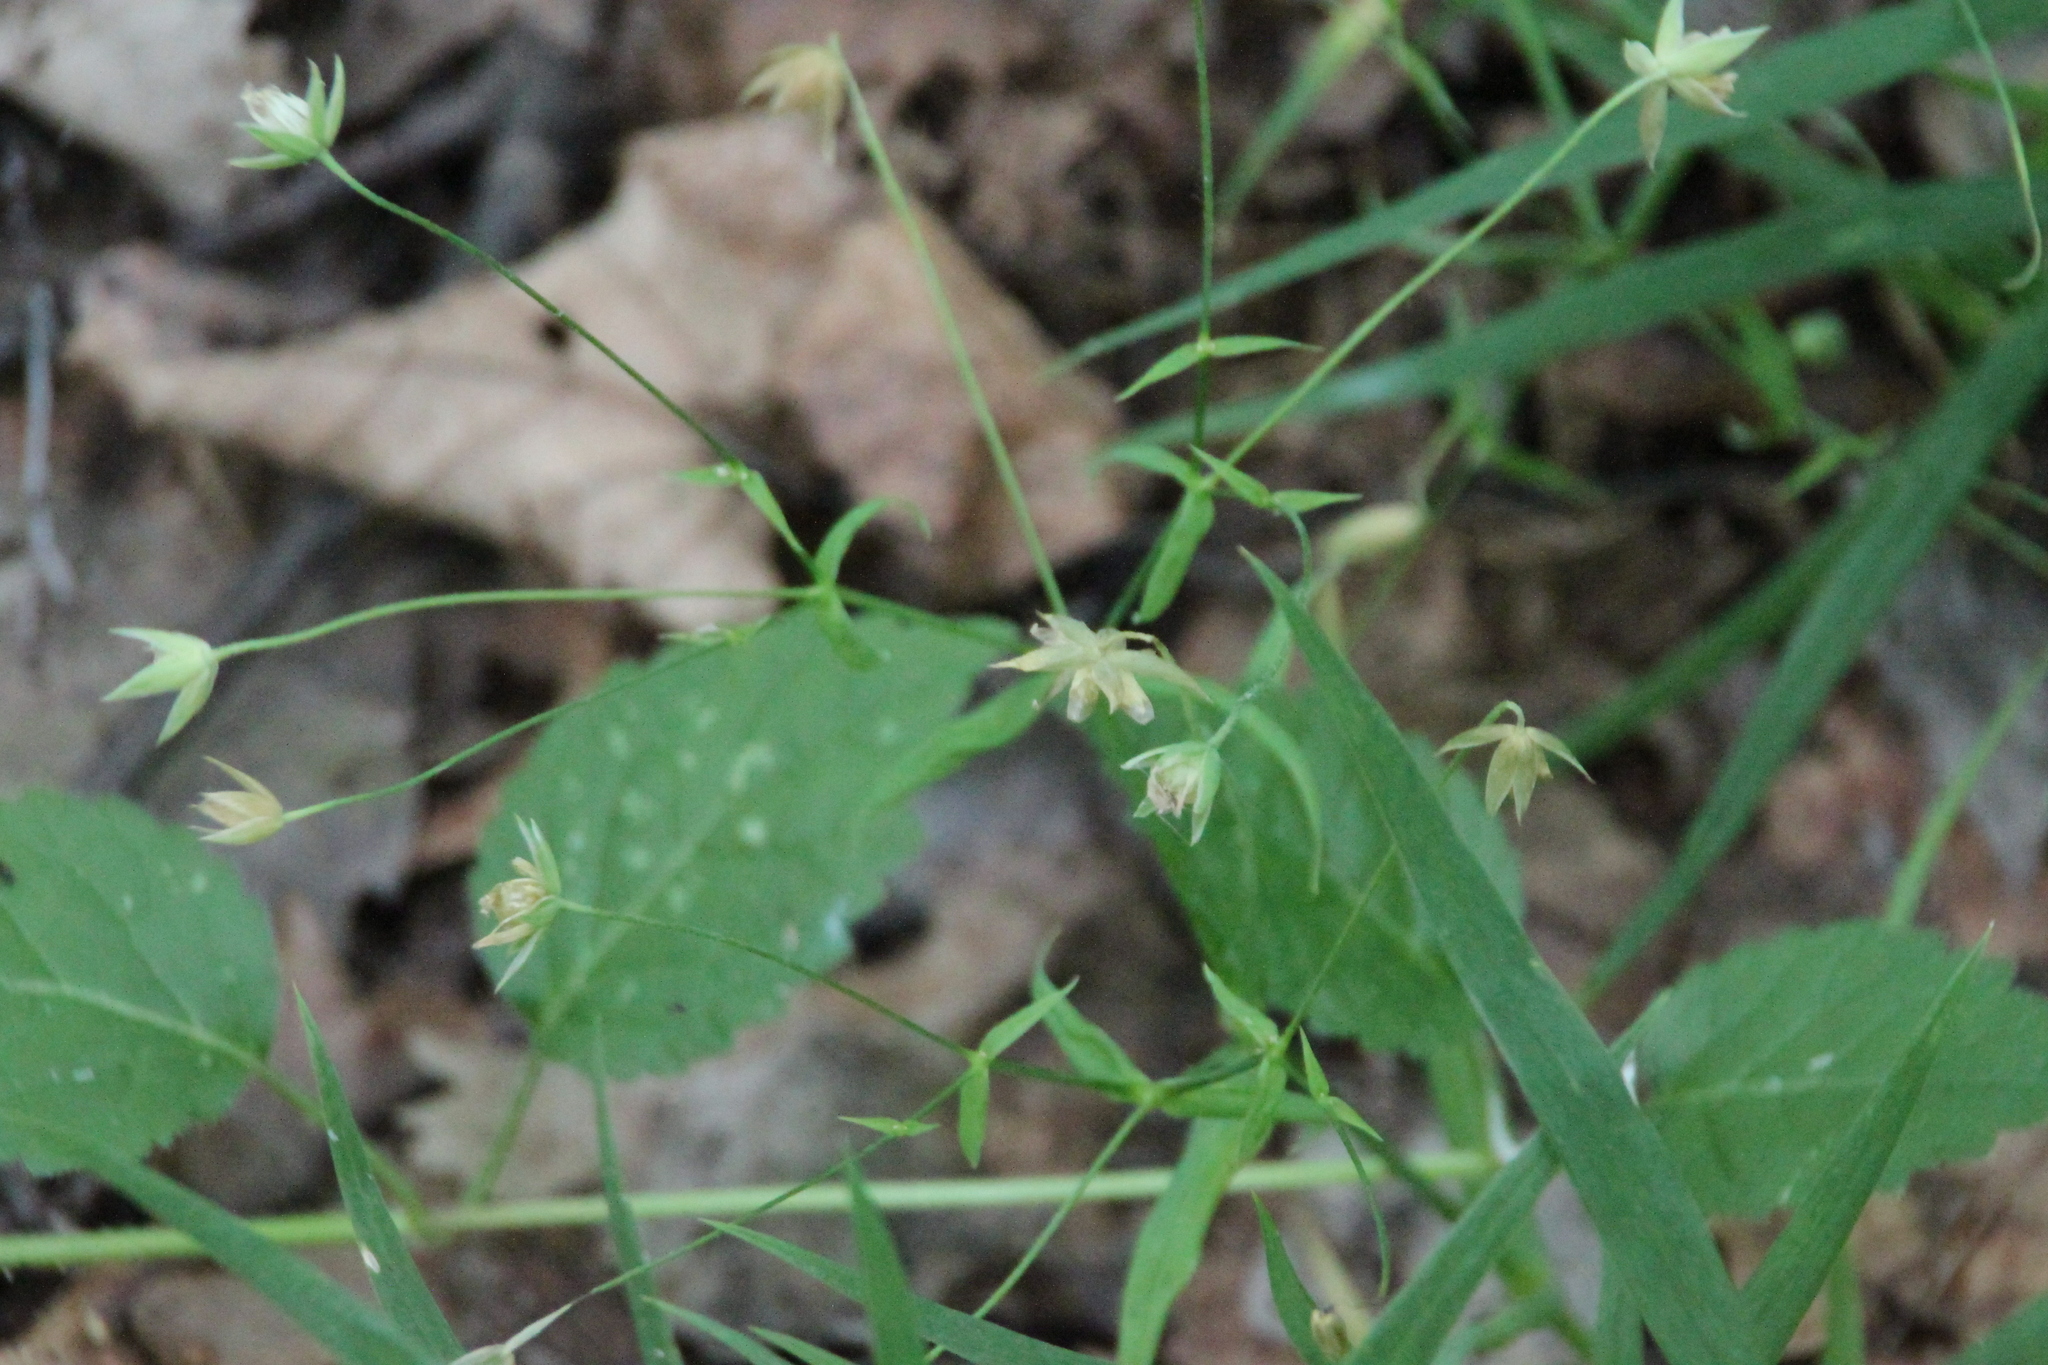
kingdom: Plantae
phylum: Tracheophyta
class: Magnoliopsida
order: Caryophyllales
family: Caryophyllaceae
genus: Rabelera
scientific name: Rabelera holostea
